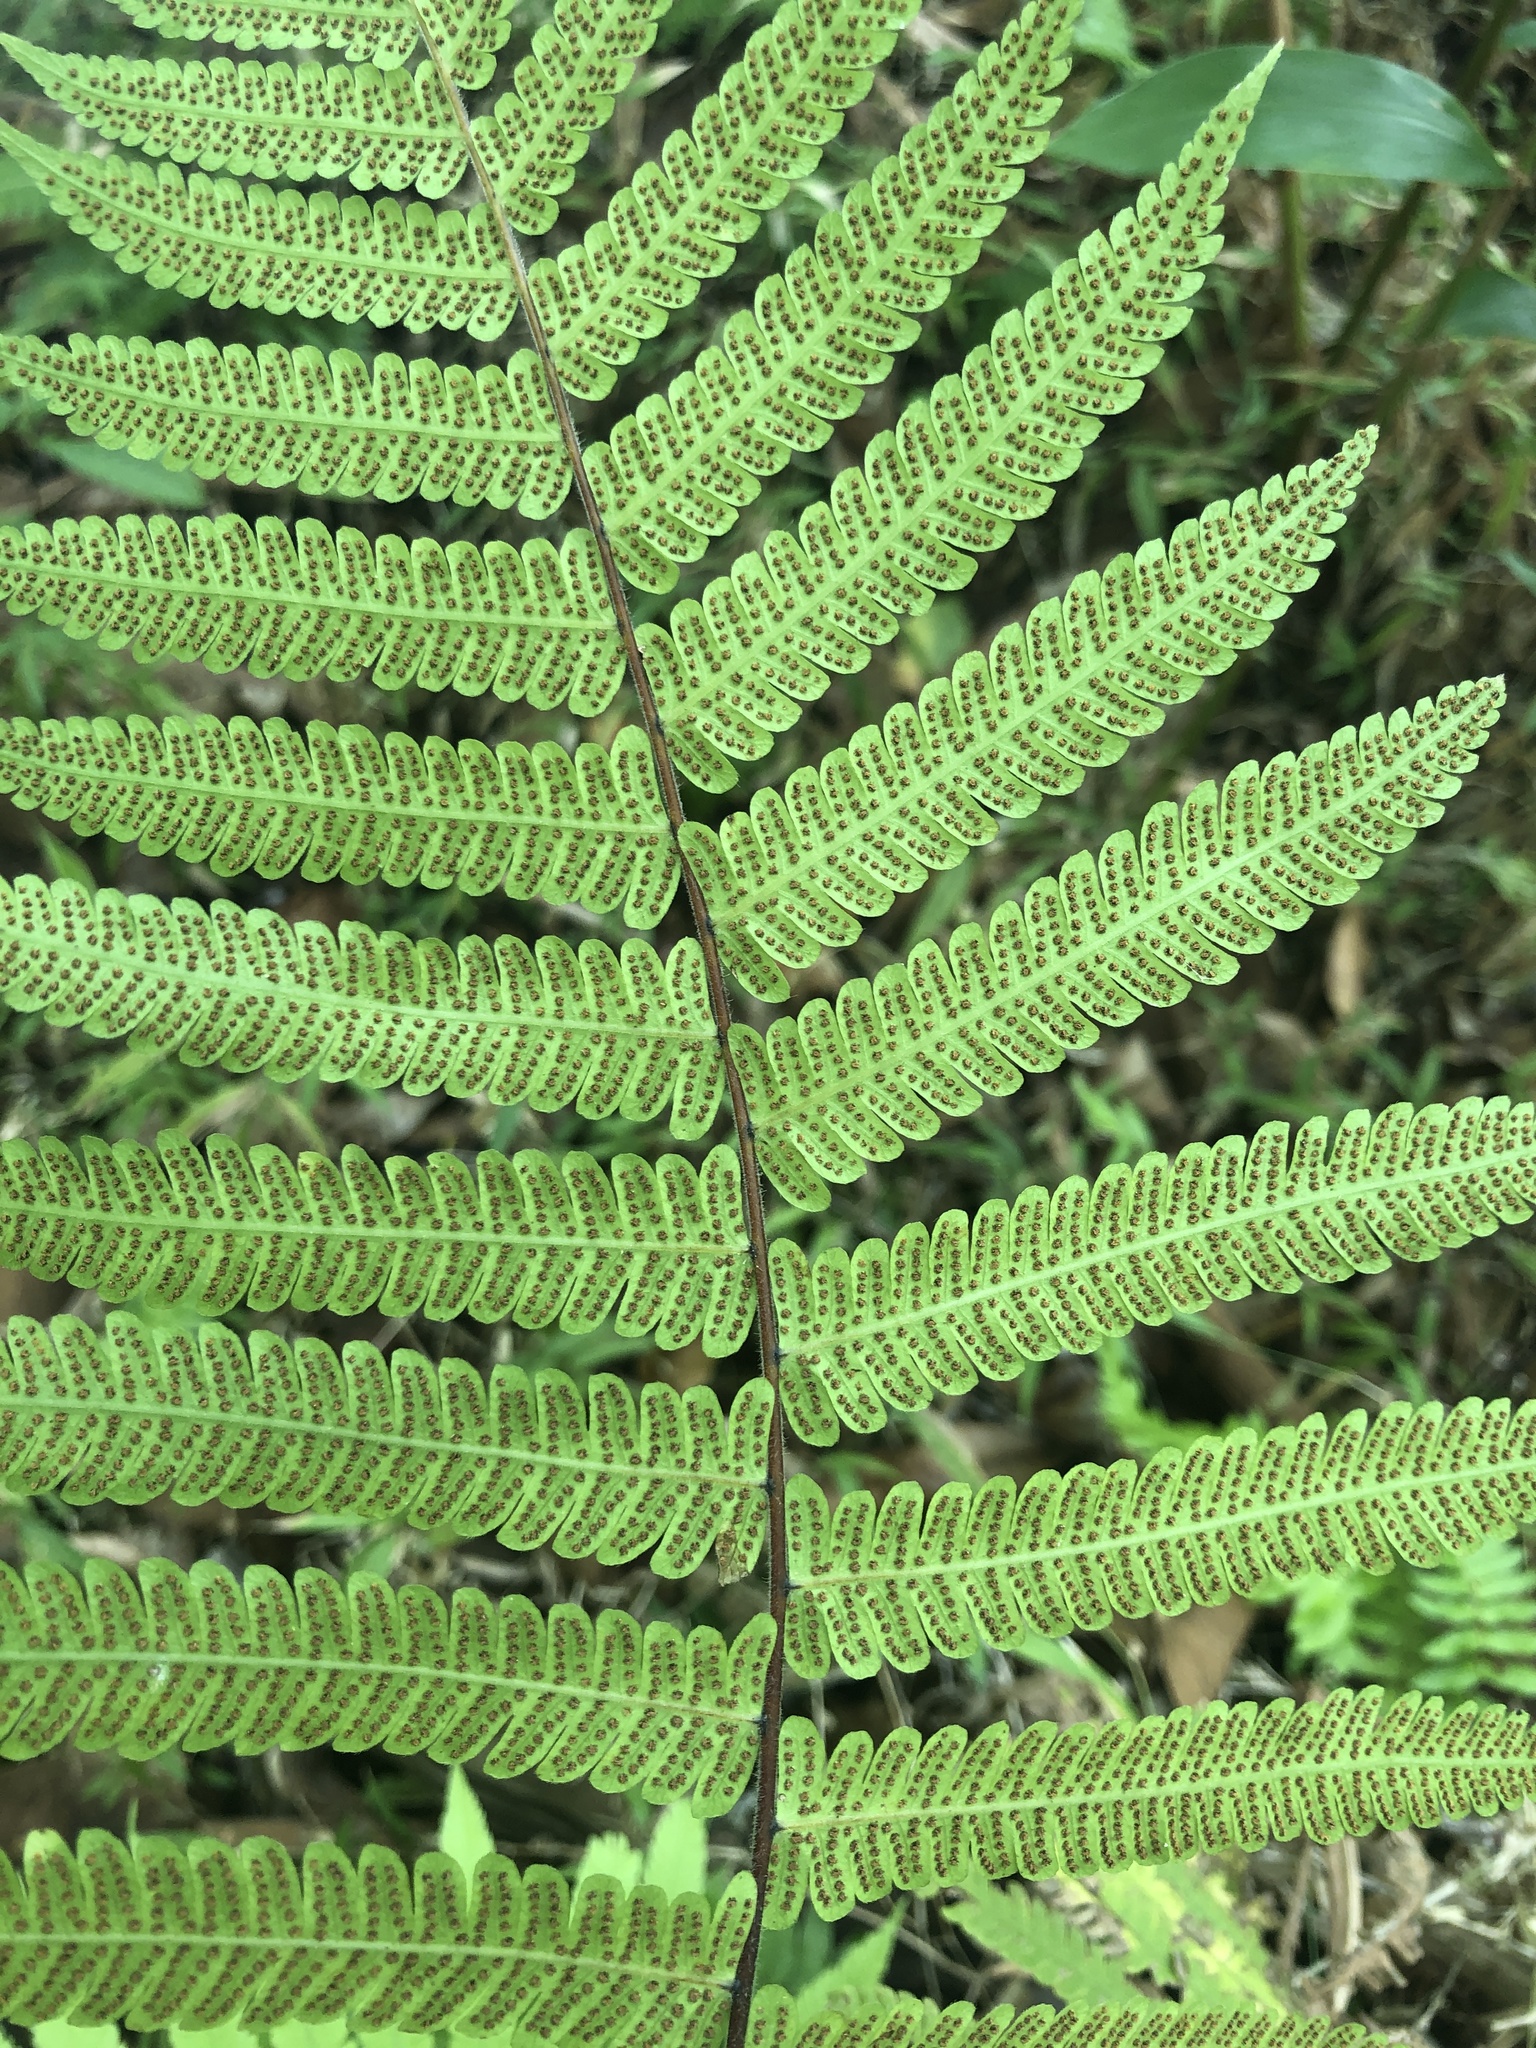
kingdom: Plantae
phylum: Tracheophyta
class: Polypodiopsida
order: Polypodiales
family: Thelypteridaceae
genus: Christella
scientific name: Christella parasitica
